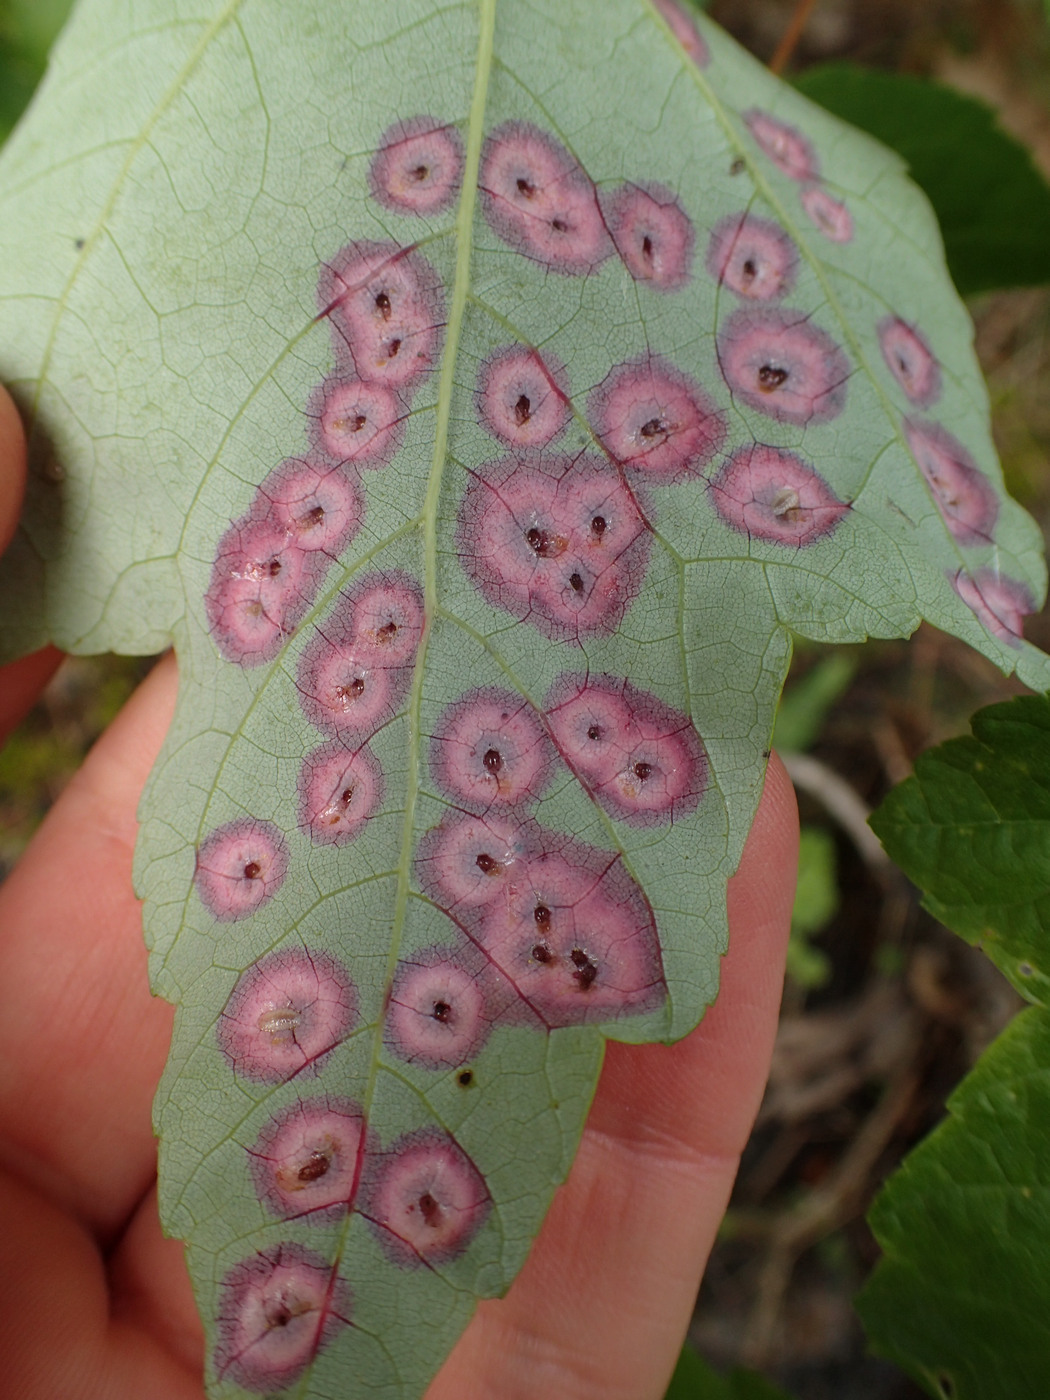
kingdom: Animalia
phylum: Arthropoda
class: Insecta
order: Diptera
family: Cecidomyiidae
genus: Acericecis
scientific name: Acericecis ocellaris
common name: Ocellate gall midge
